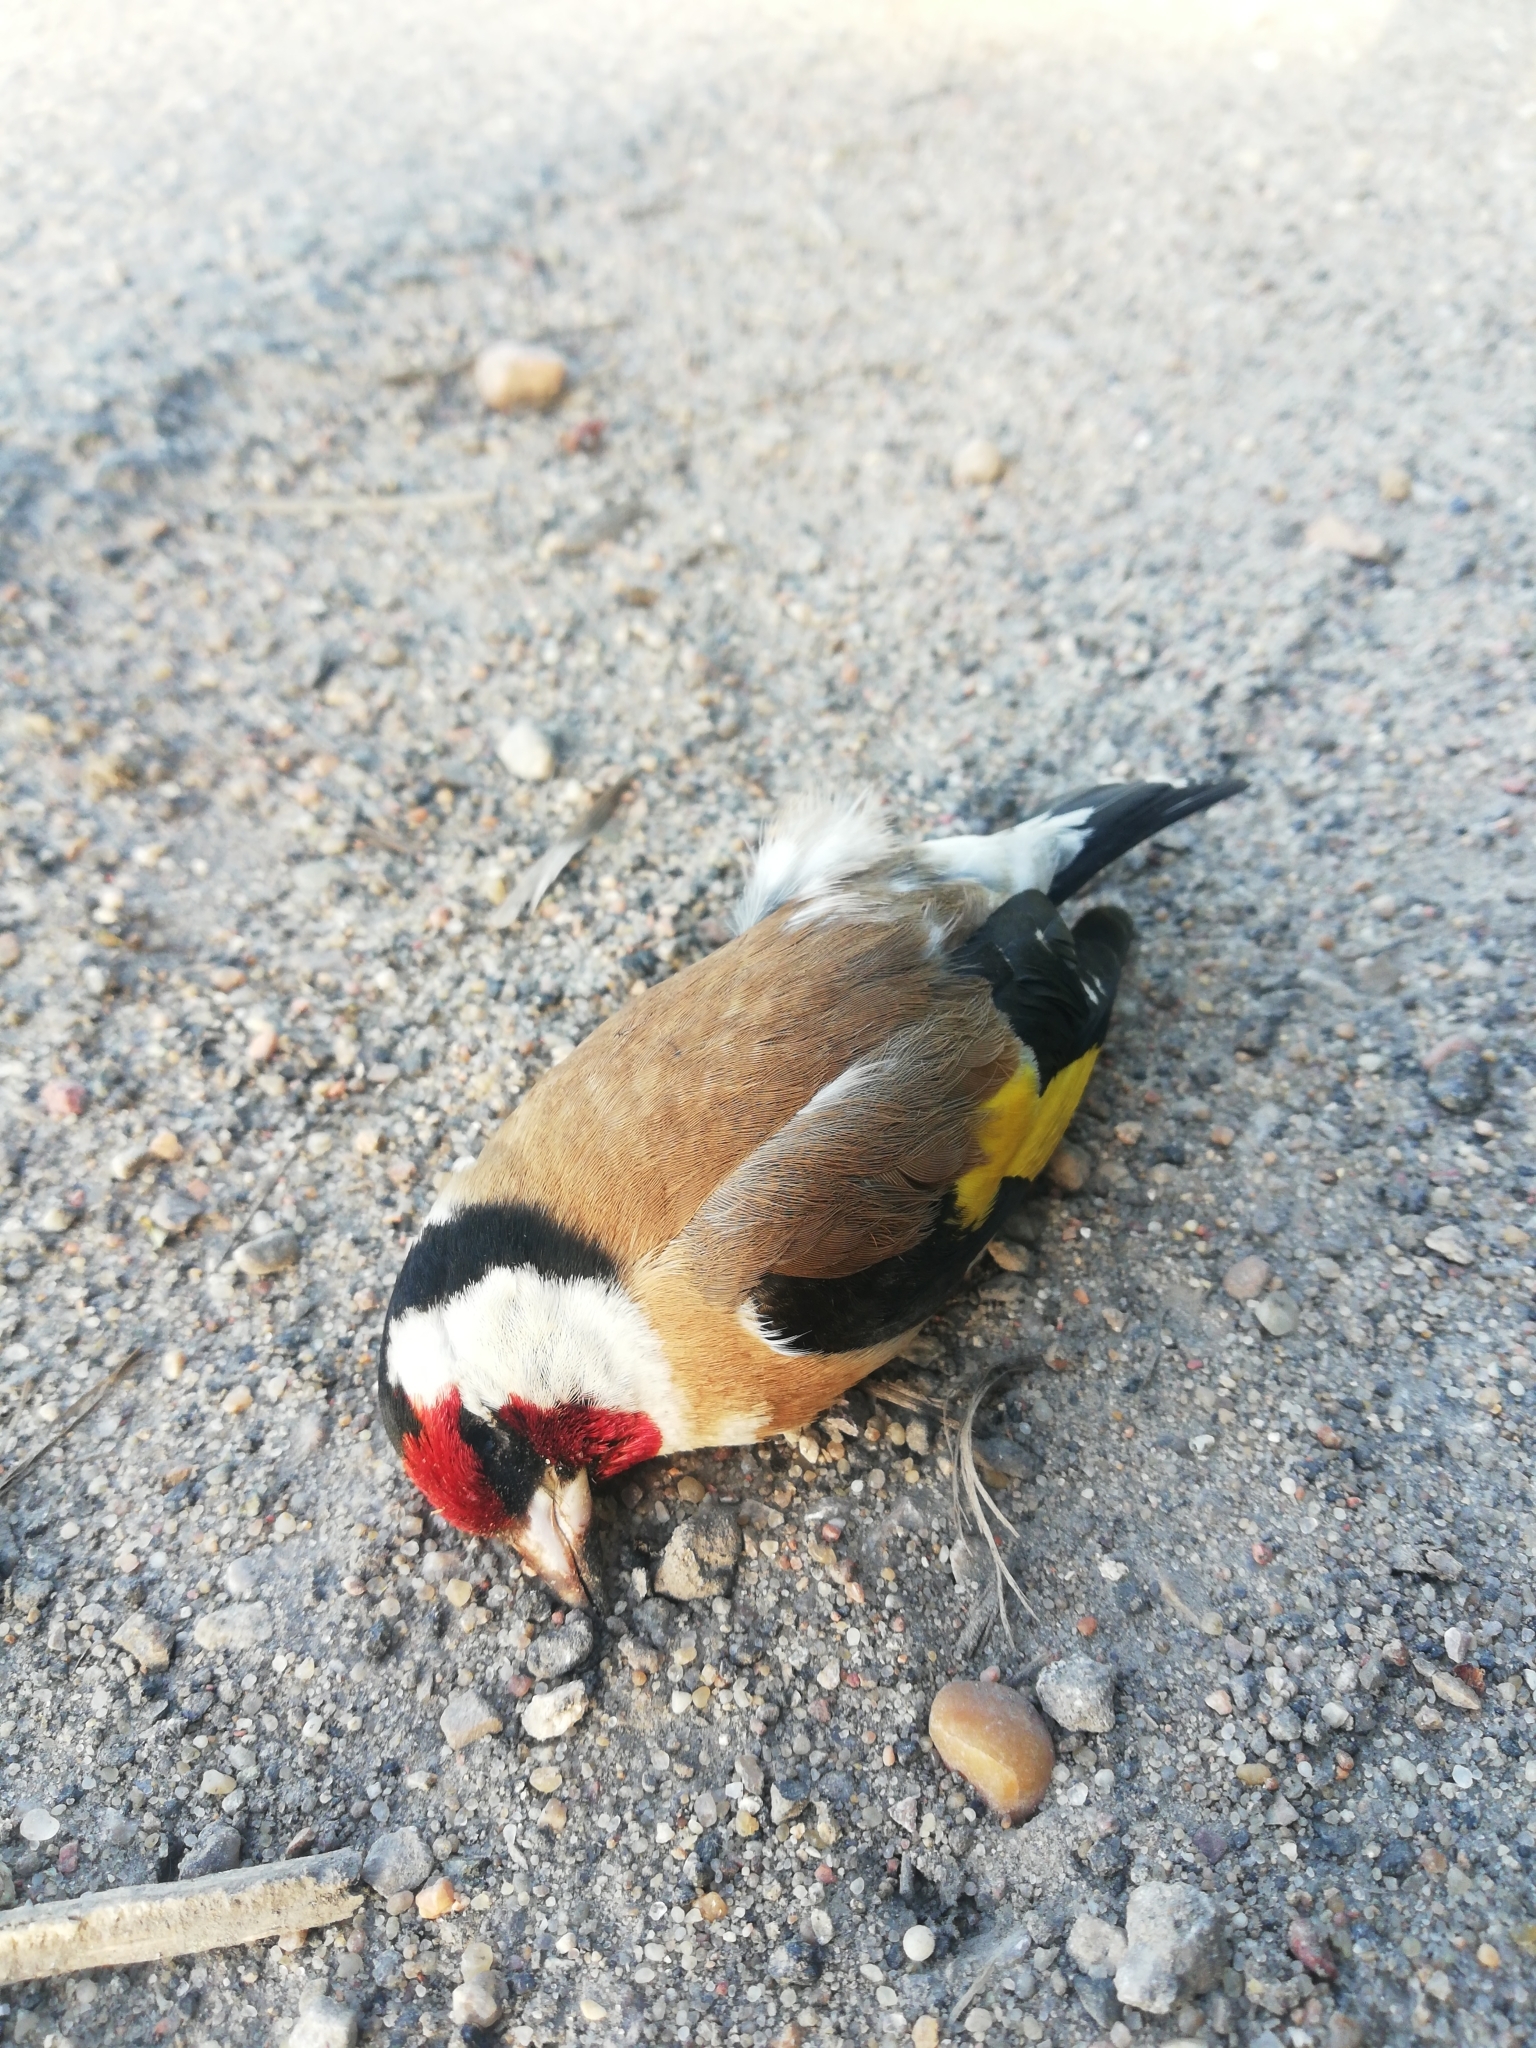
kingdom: Animalia
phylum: Chordata
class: Aves
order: Passeriformes
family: Fringillidae
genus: Carduelis
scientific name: Carduelis carduelis
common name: European goldfinch
